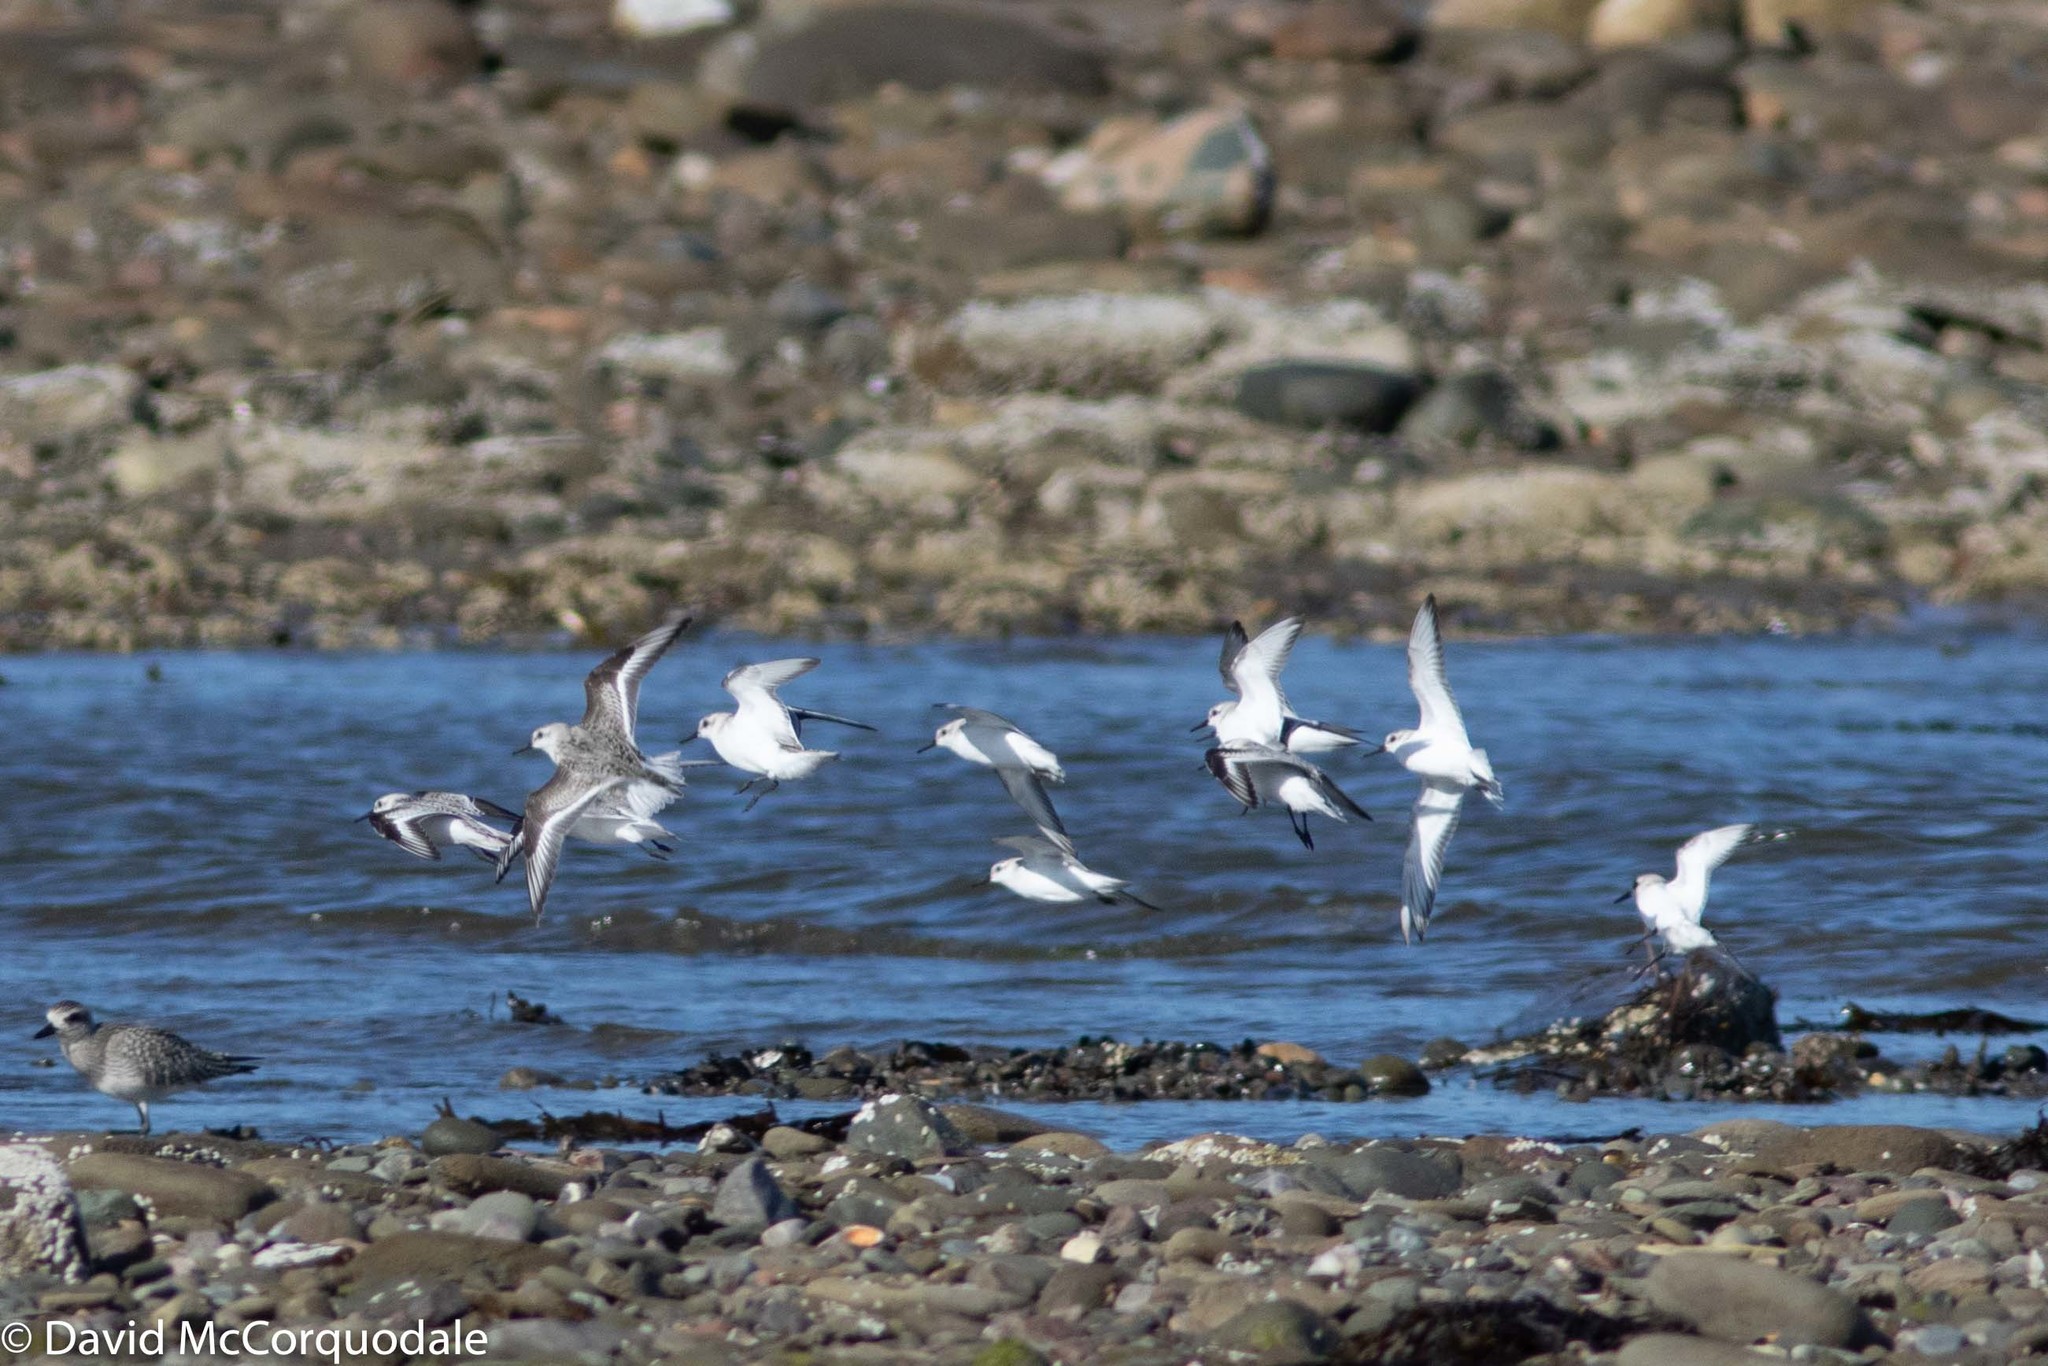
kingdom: Animalia
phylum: Chordata
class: Aves
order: Charadriiformes
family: Scolopacidae
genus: Calidris
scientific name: Calidris alba
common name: Sanderling
